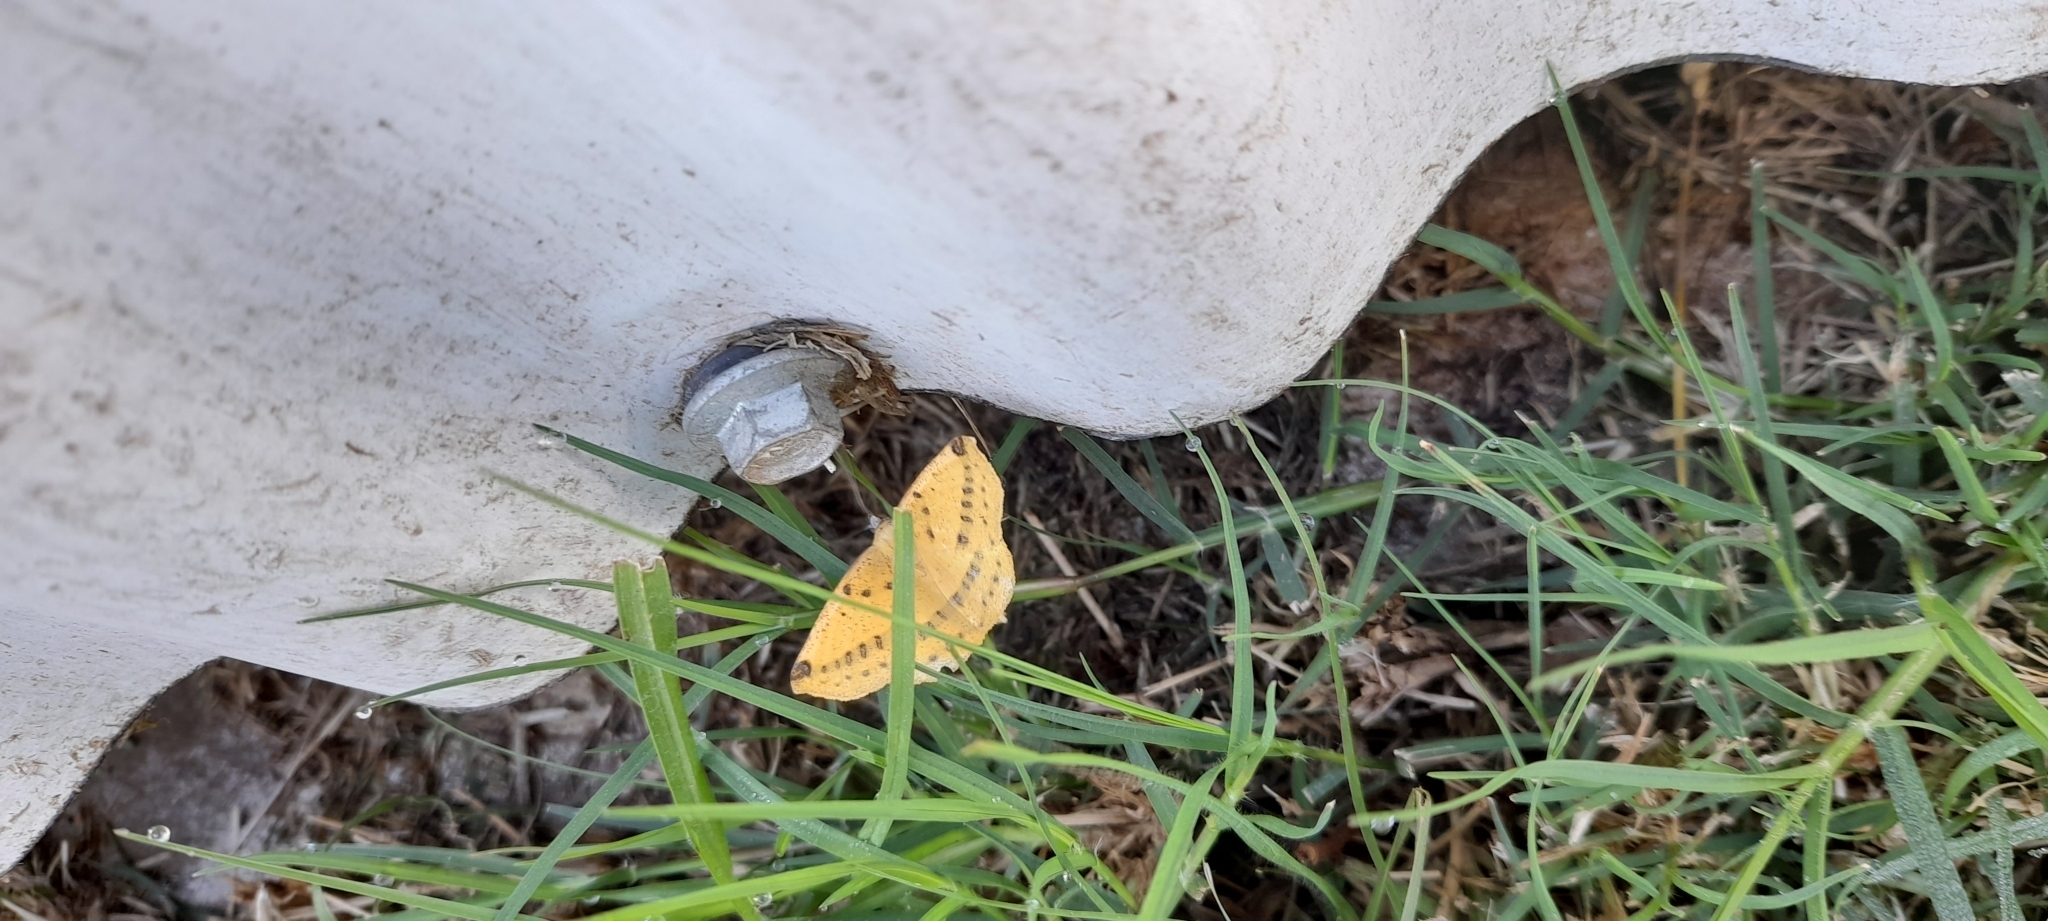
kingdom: Animalia
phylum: Arthropoda
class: Insecta
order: Lepidoptera
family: Geometridae
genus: Microsema
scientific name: Microsema gladiaria
